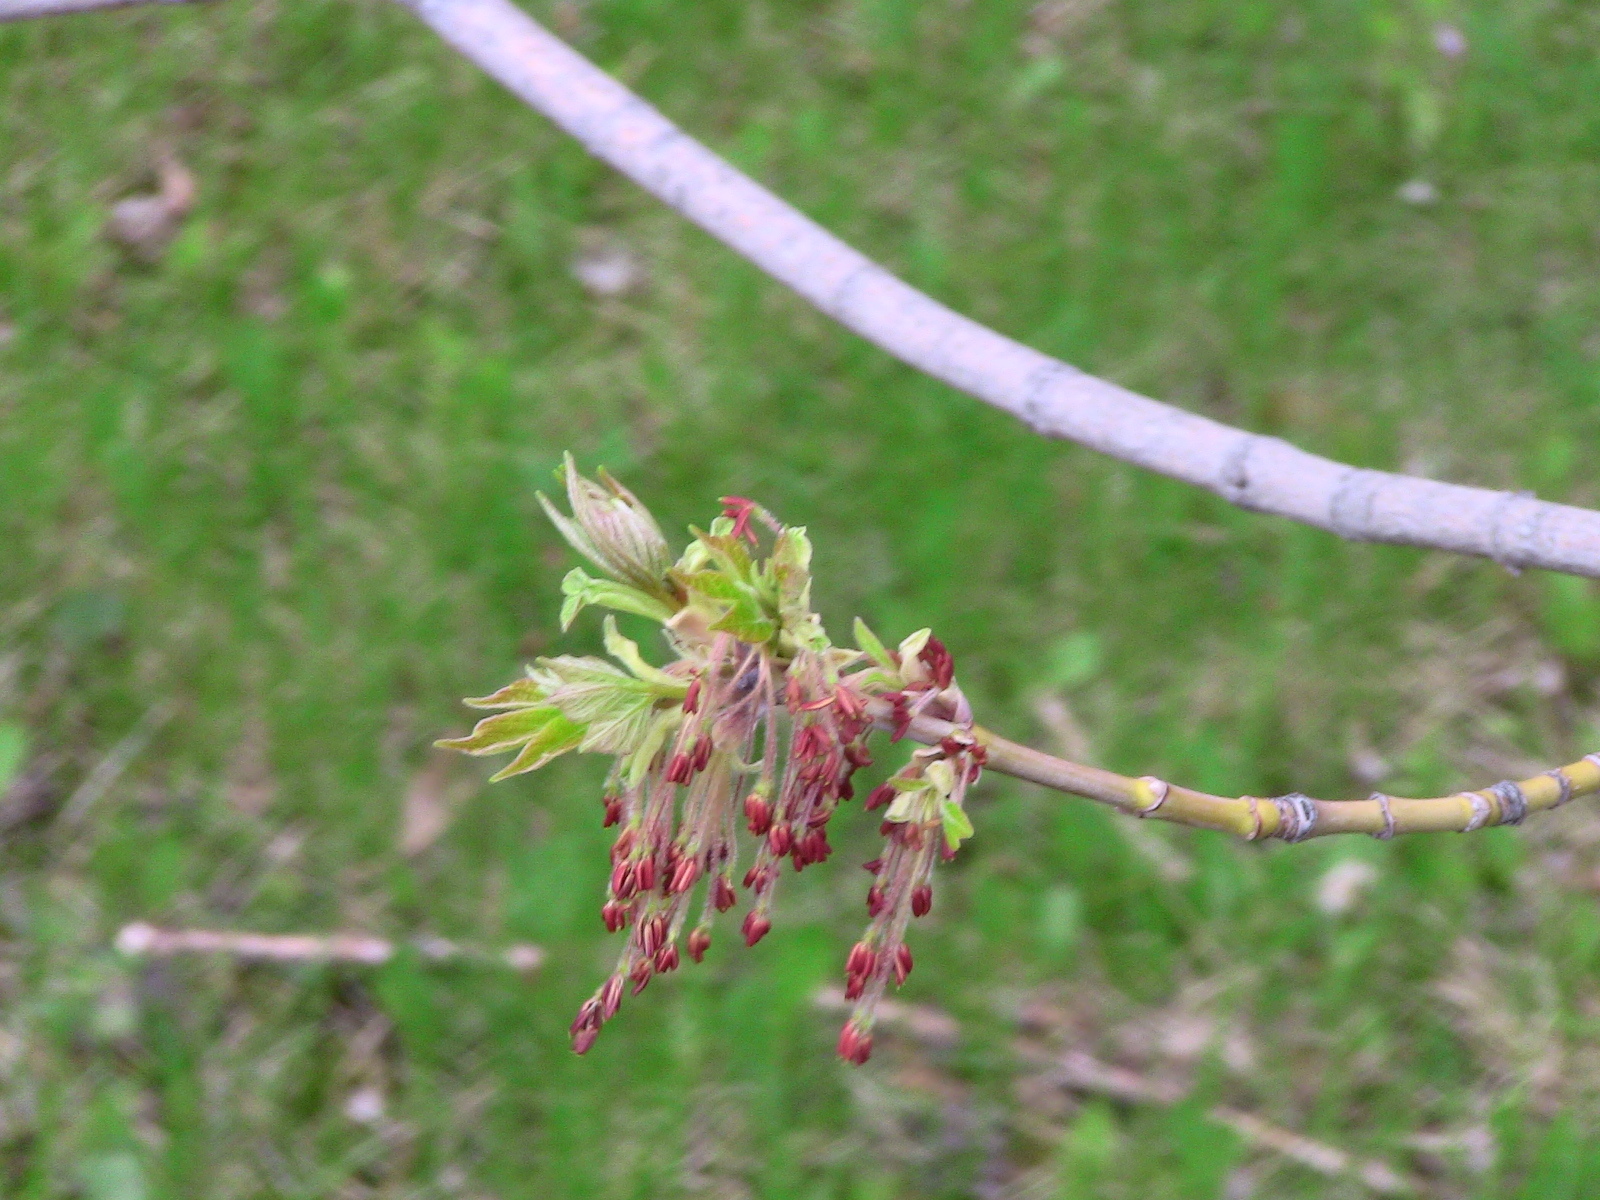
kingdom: Plantae
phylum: Tracheophyta
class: Magnoliopsida
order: Sapindales
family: Sapindaceae
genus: Acer
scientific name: Acer negundo
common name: Ashleaf maple
